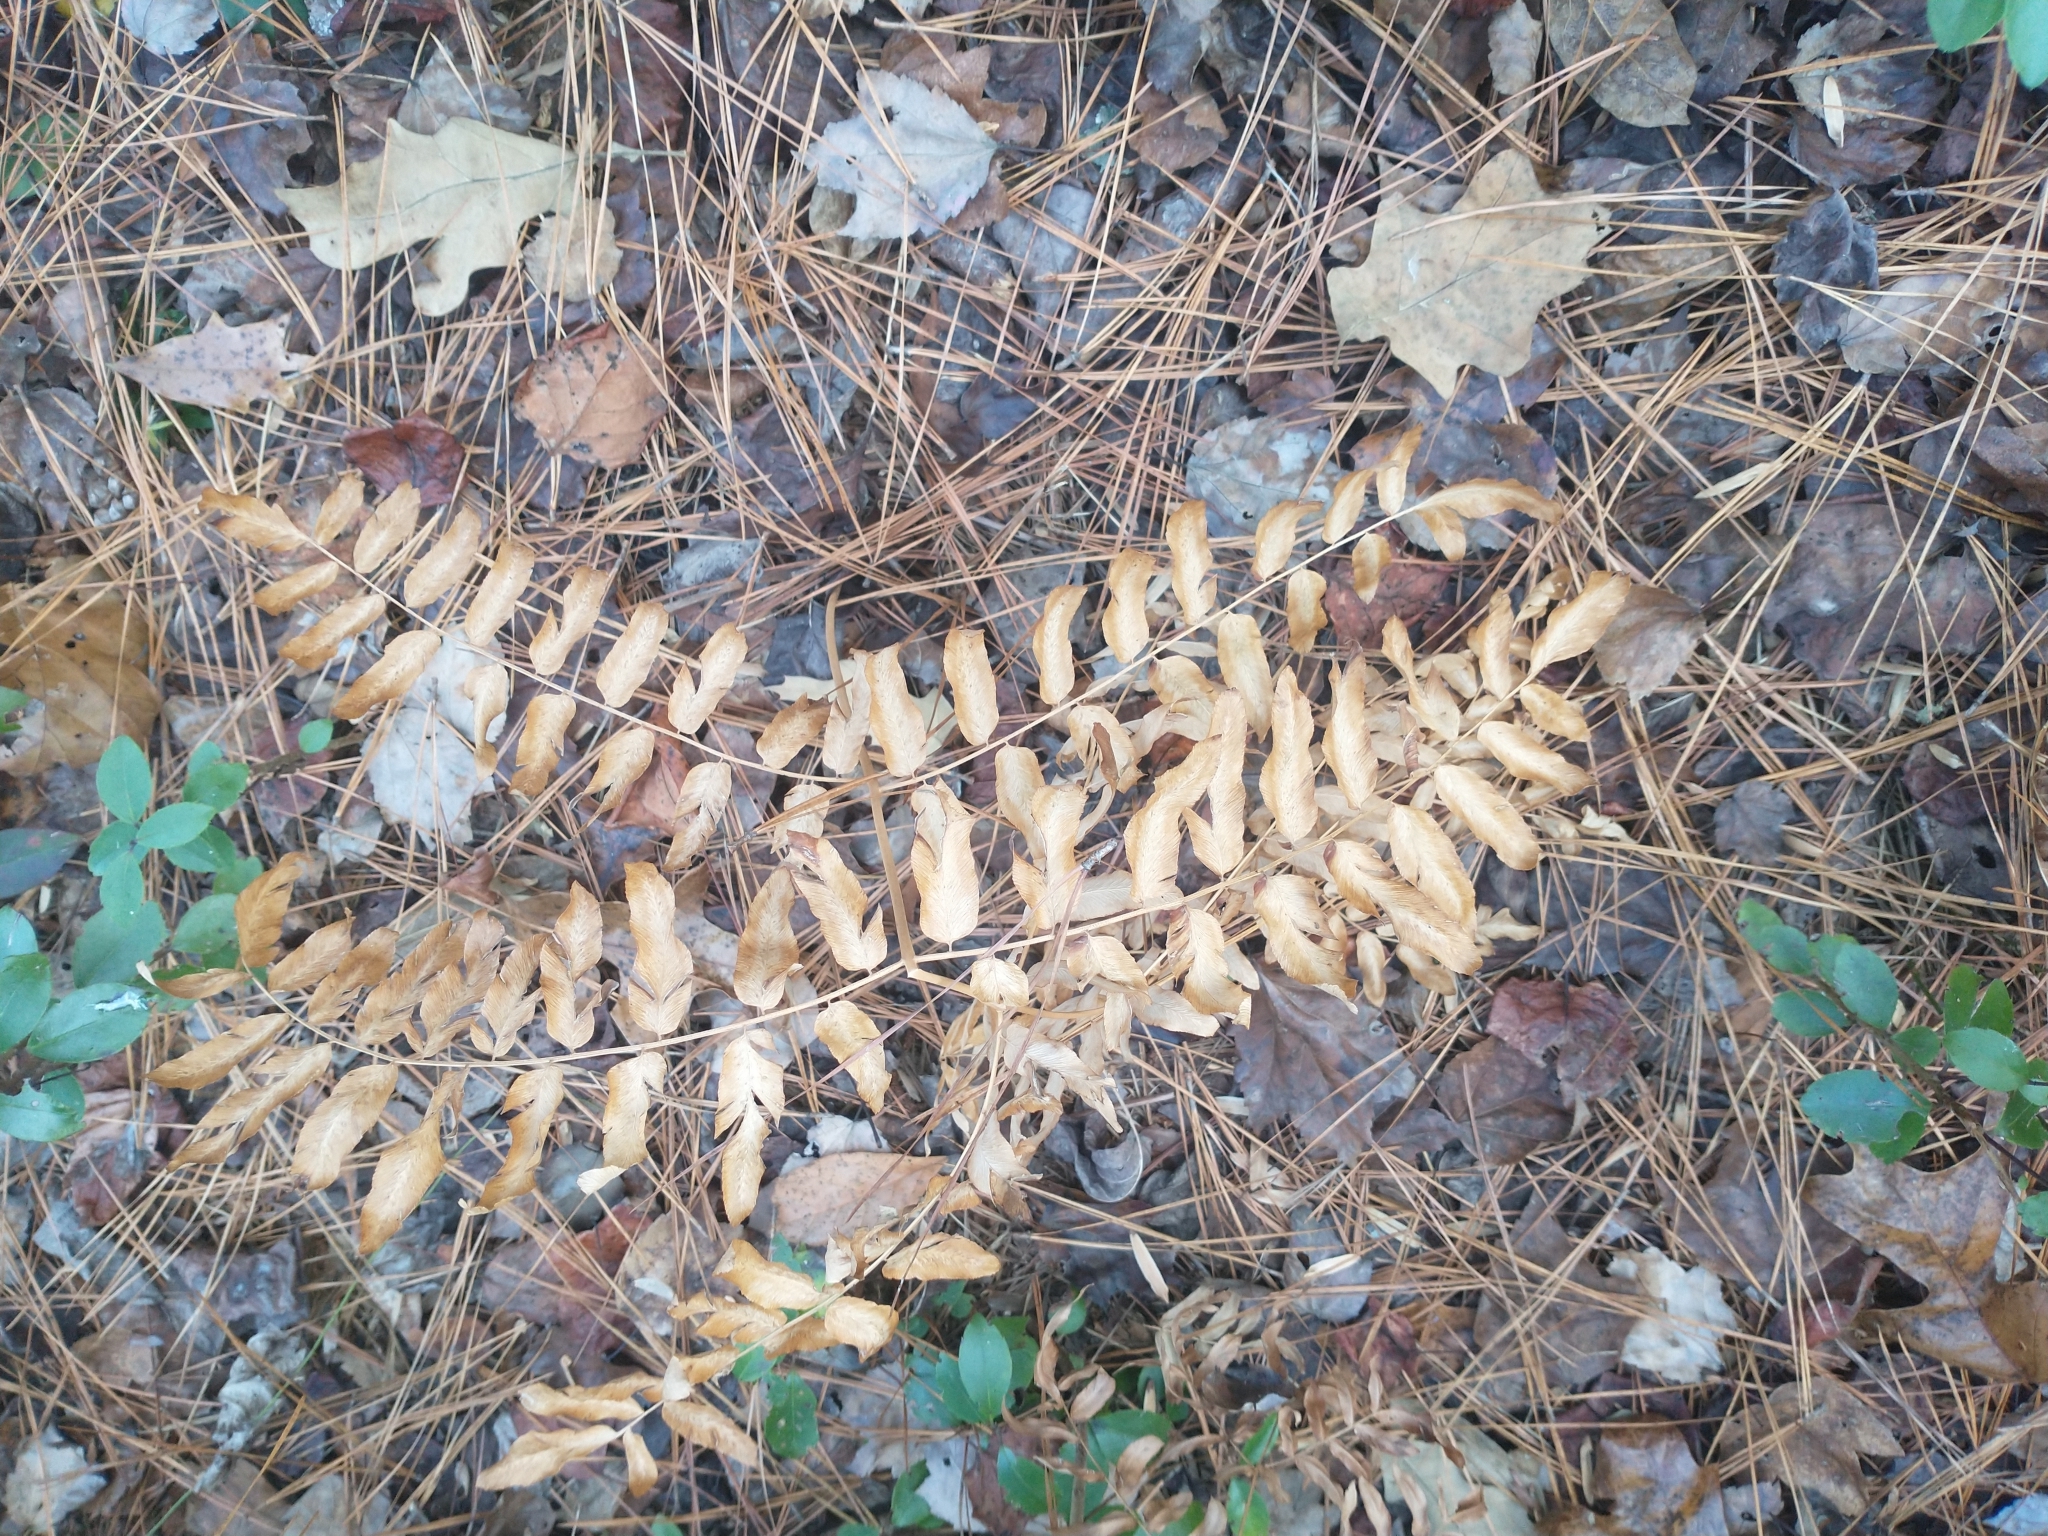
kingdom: Plantae
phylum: Tracheophyta
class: Polypodiopsida
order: Osmundales
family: Osmundaceae
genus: Osmunda
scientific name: Osmunda spectabilis
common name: American royal fern
